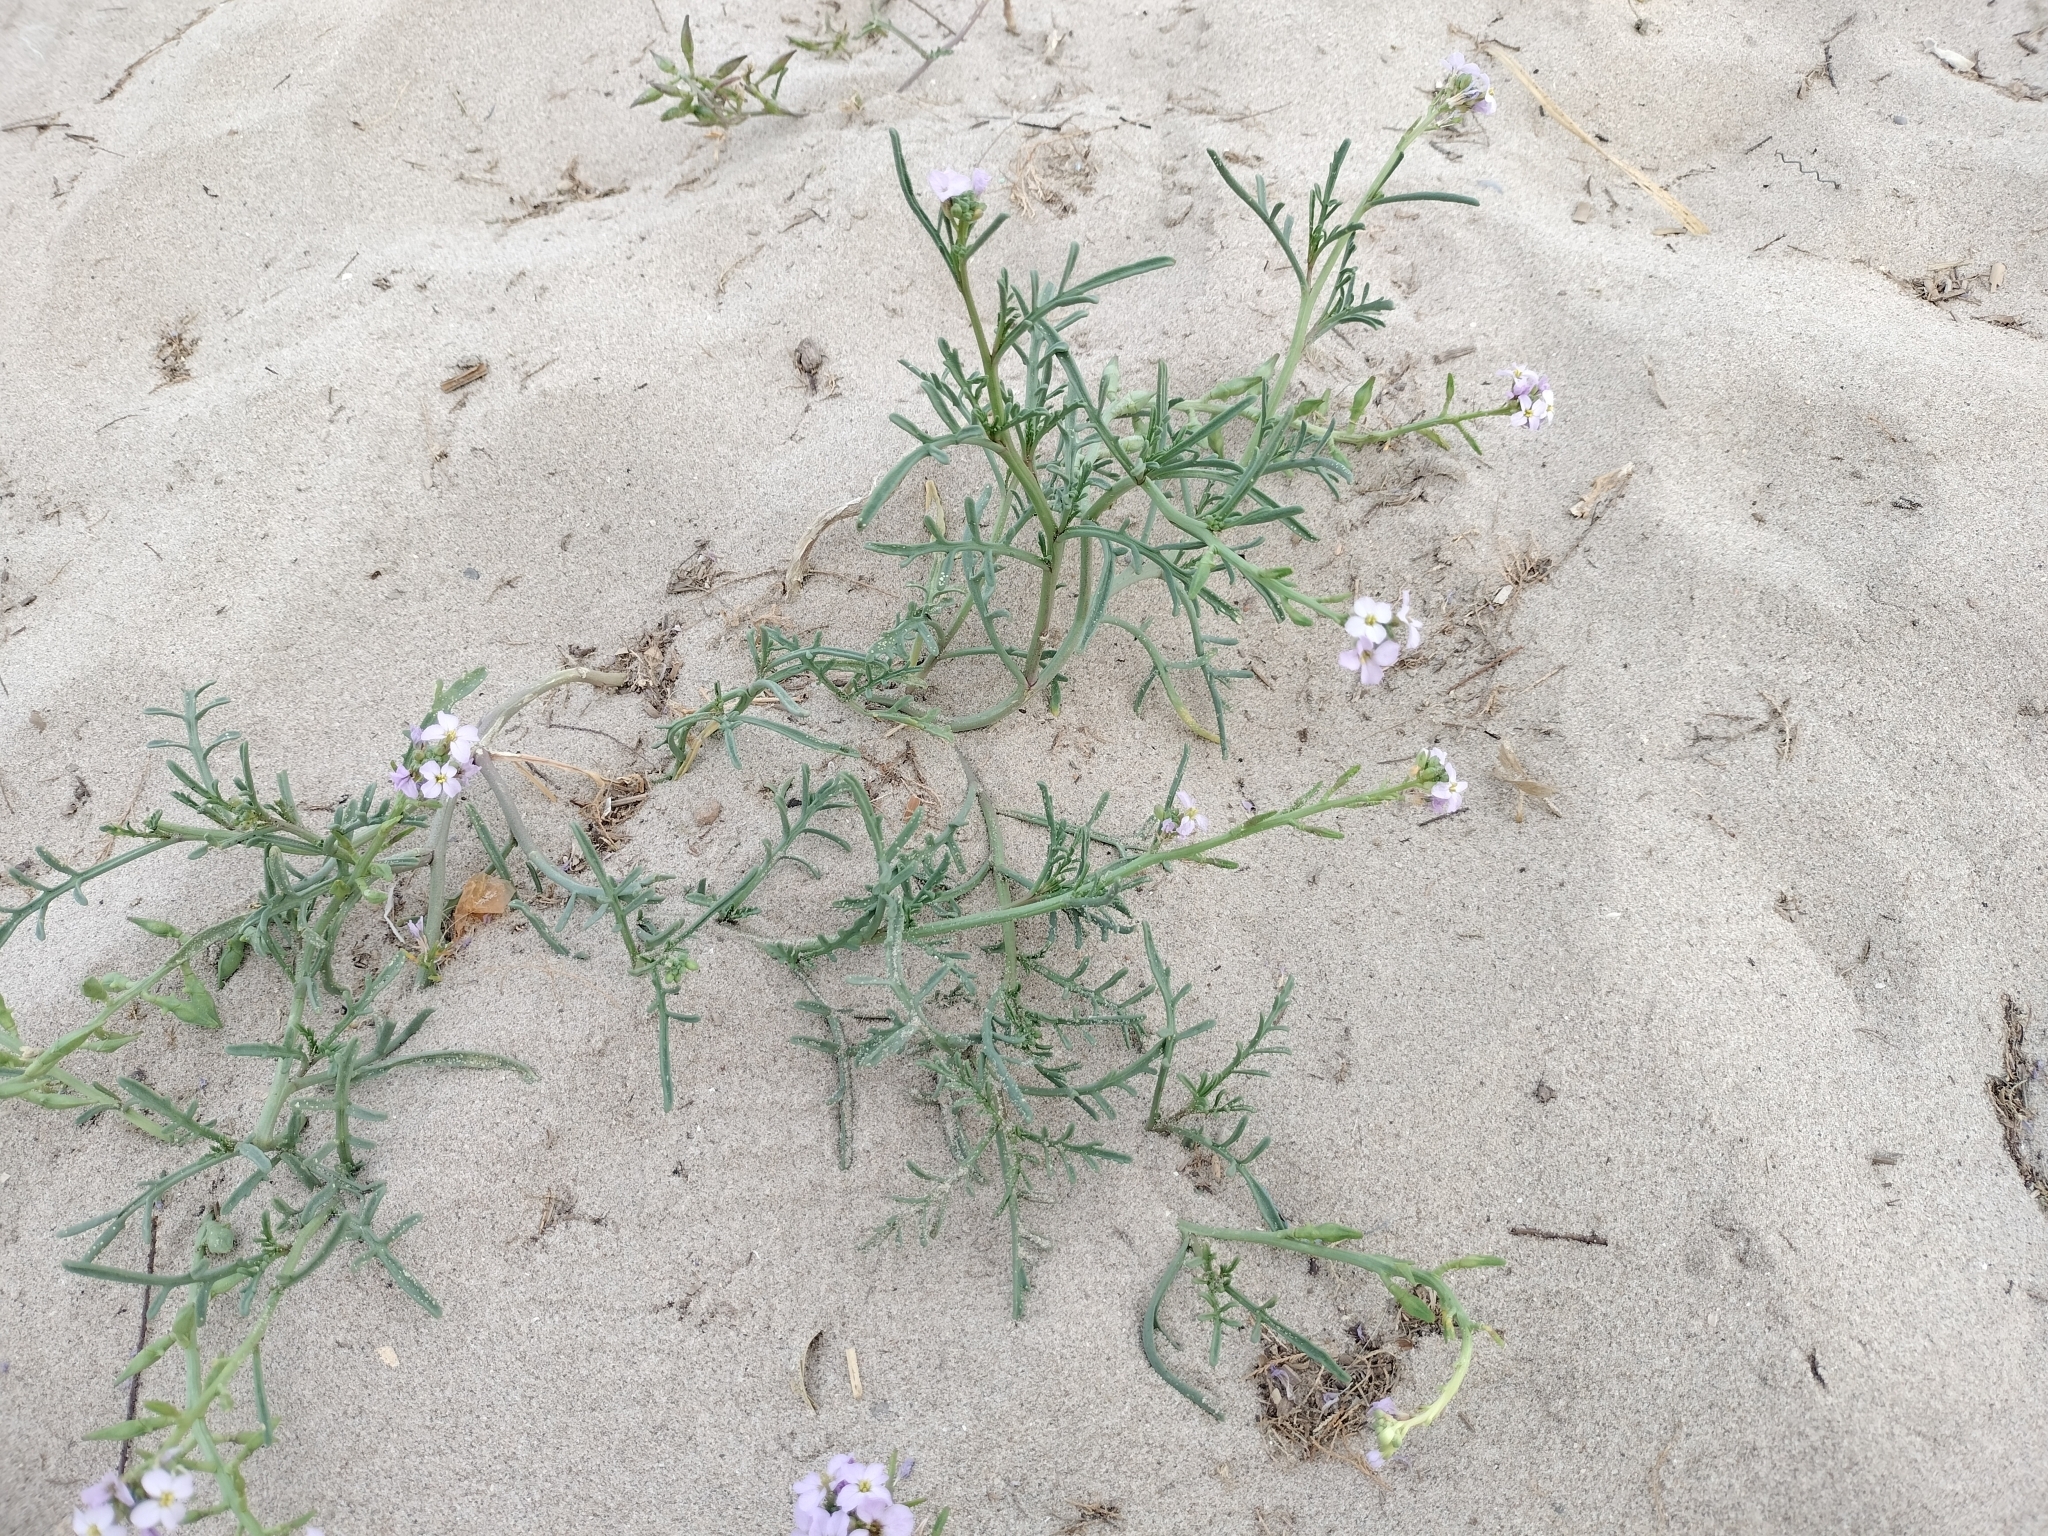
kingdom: Plantae
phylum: Tracheophyta
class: Magnoliopsida
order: Brassicales
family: Brassicaceae
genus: Cakile
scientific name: Cakile maritima
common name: Sea rocket
